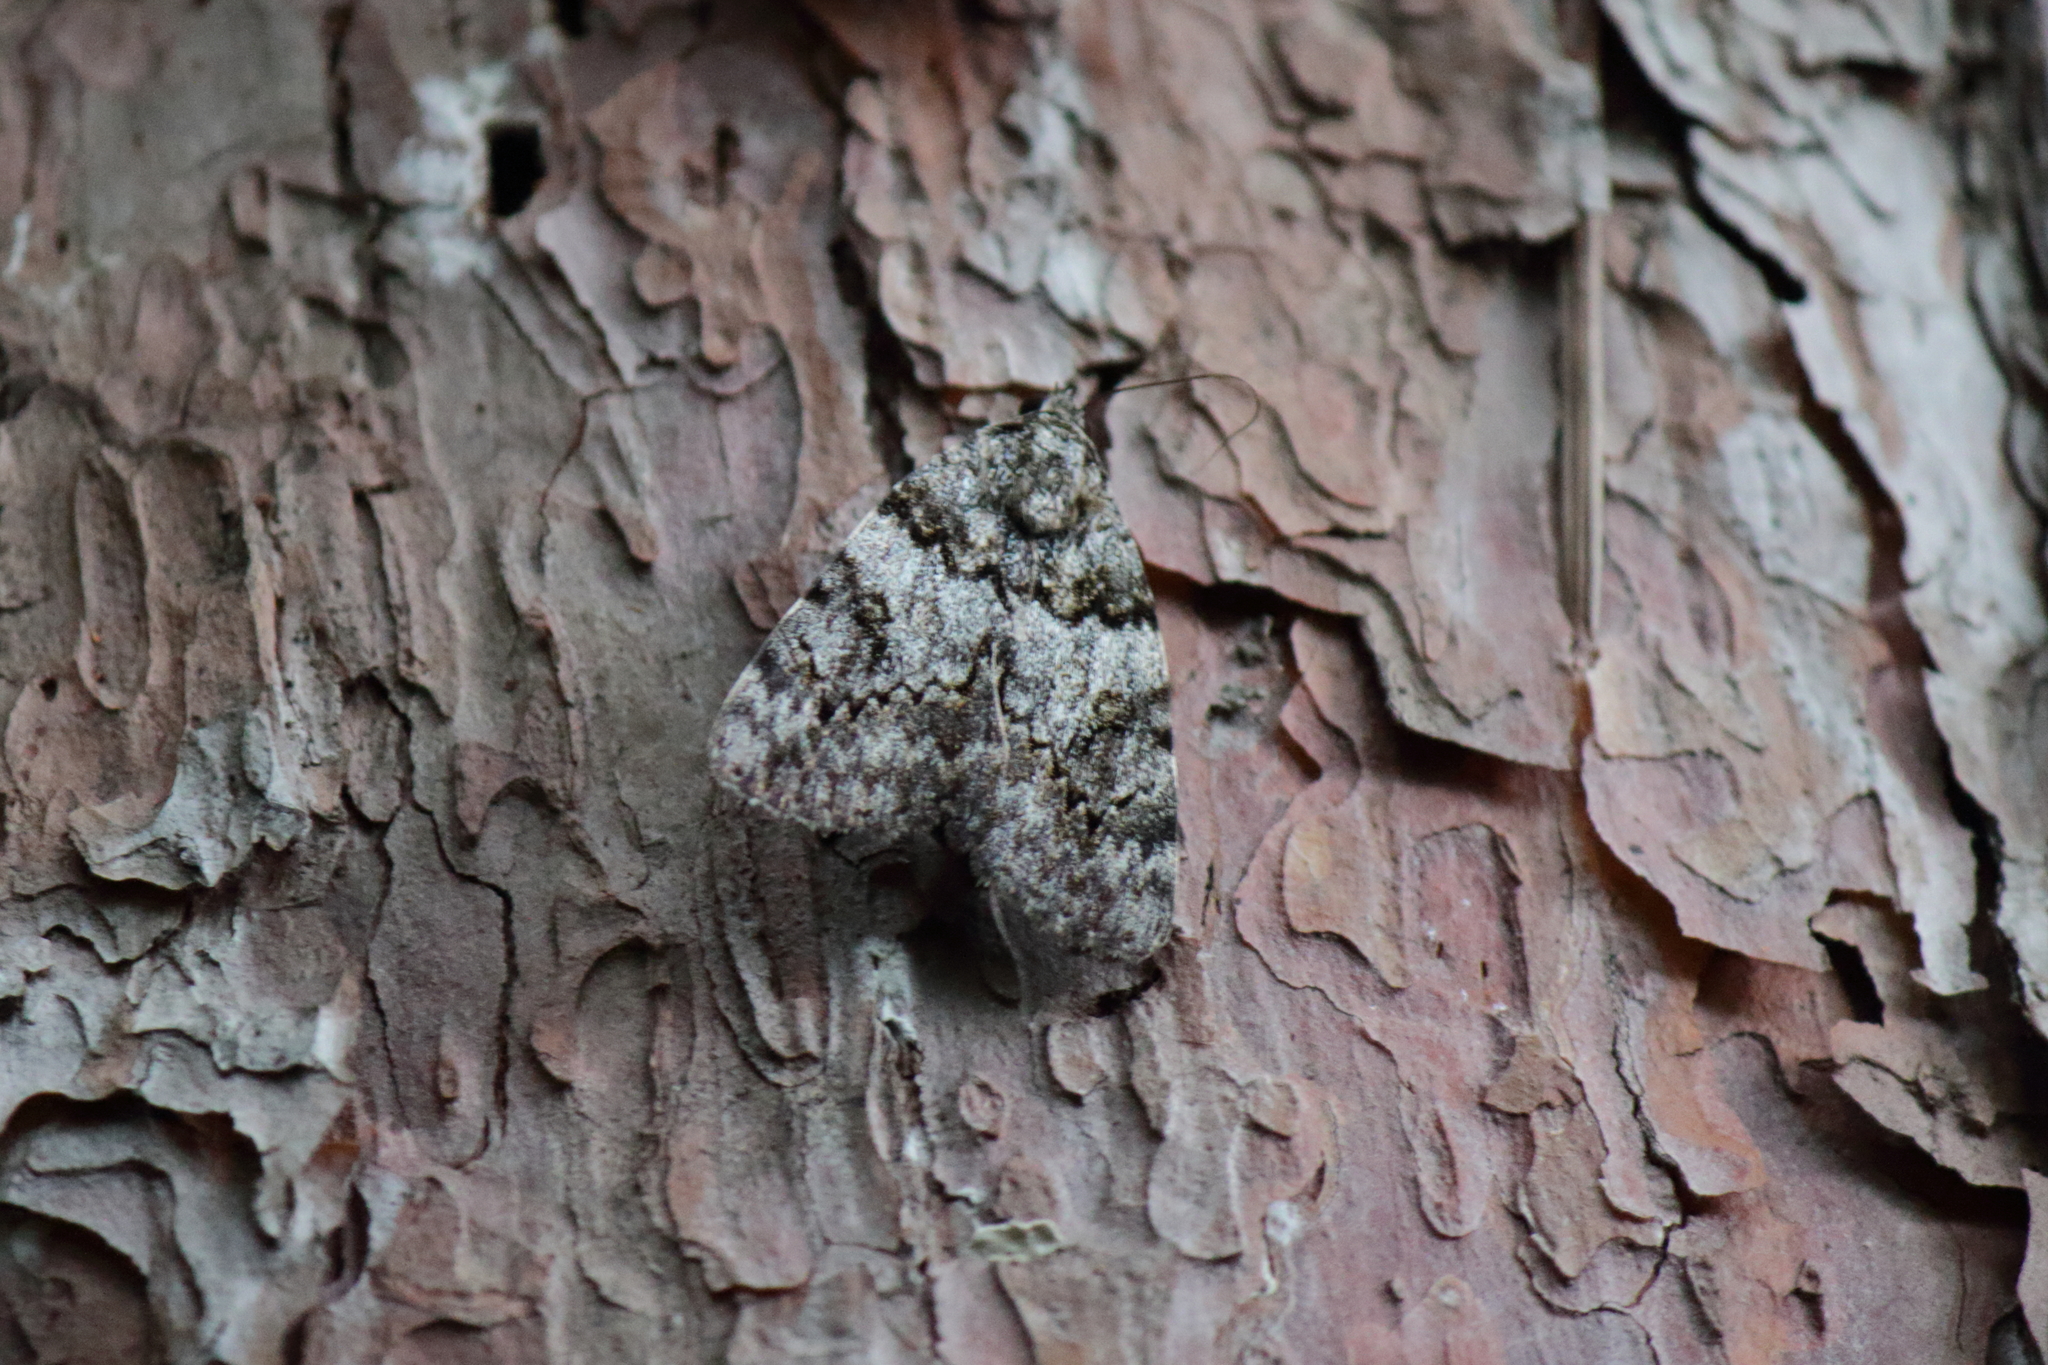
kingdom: Animalia
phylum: Arthropoda
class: Insecta
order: Lepidoptera
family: Erebidae
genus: Catocala
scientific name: Catocala duplicata
